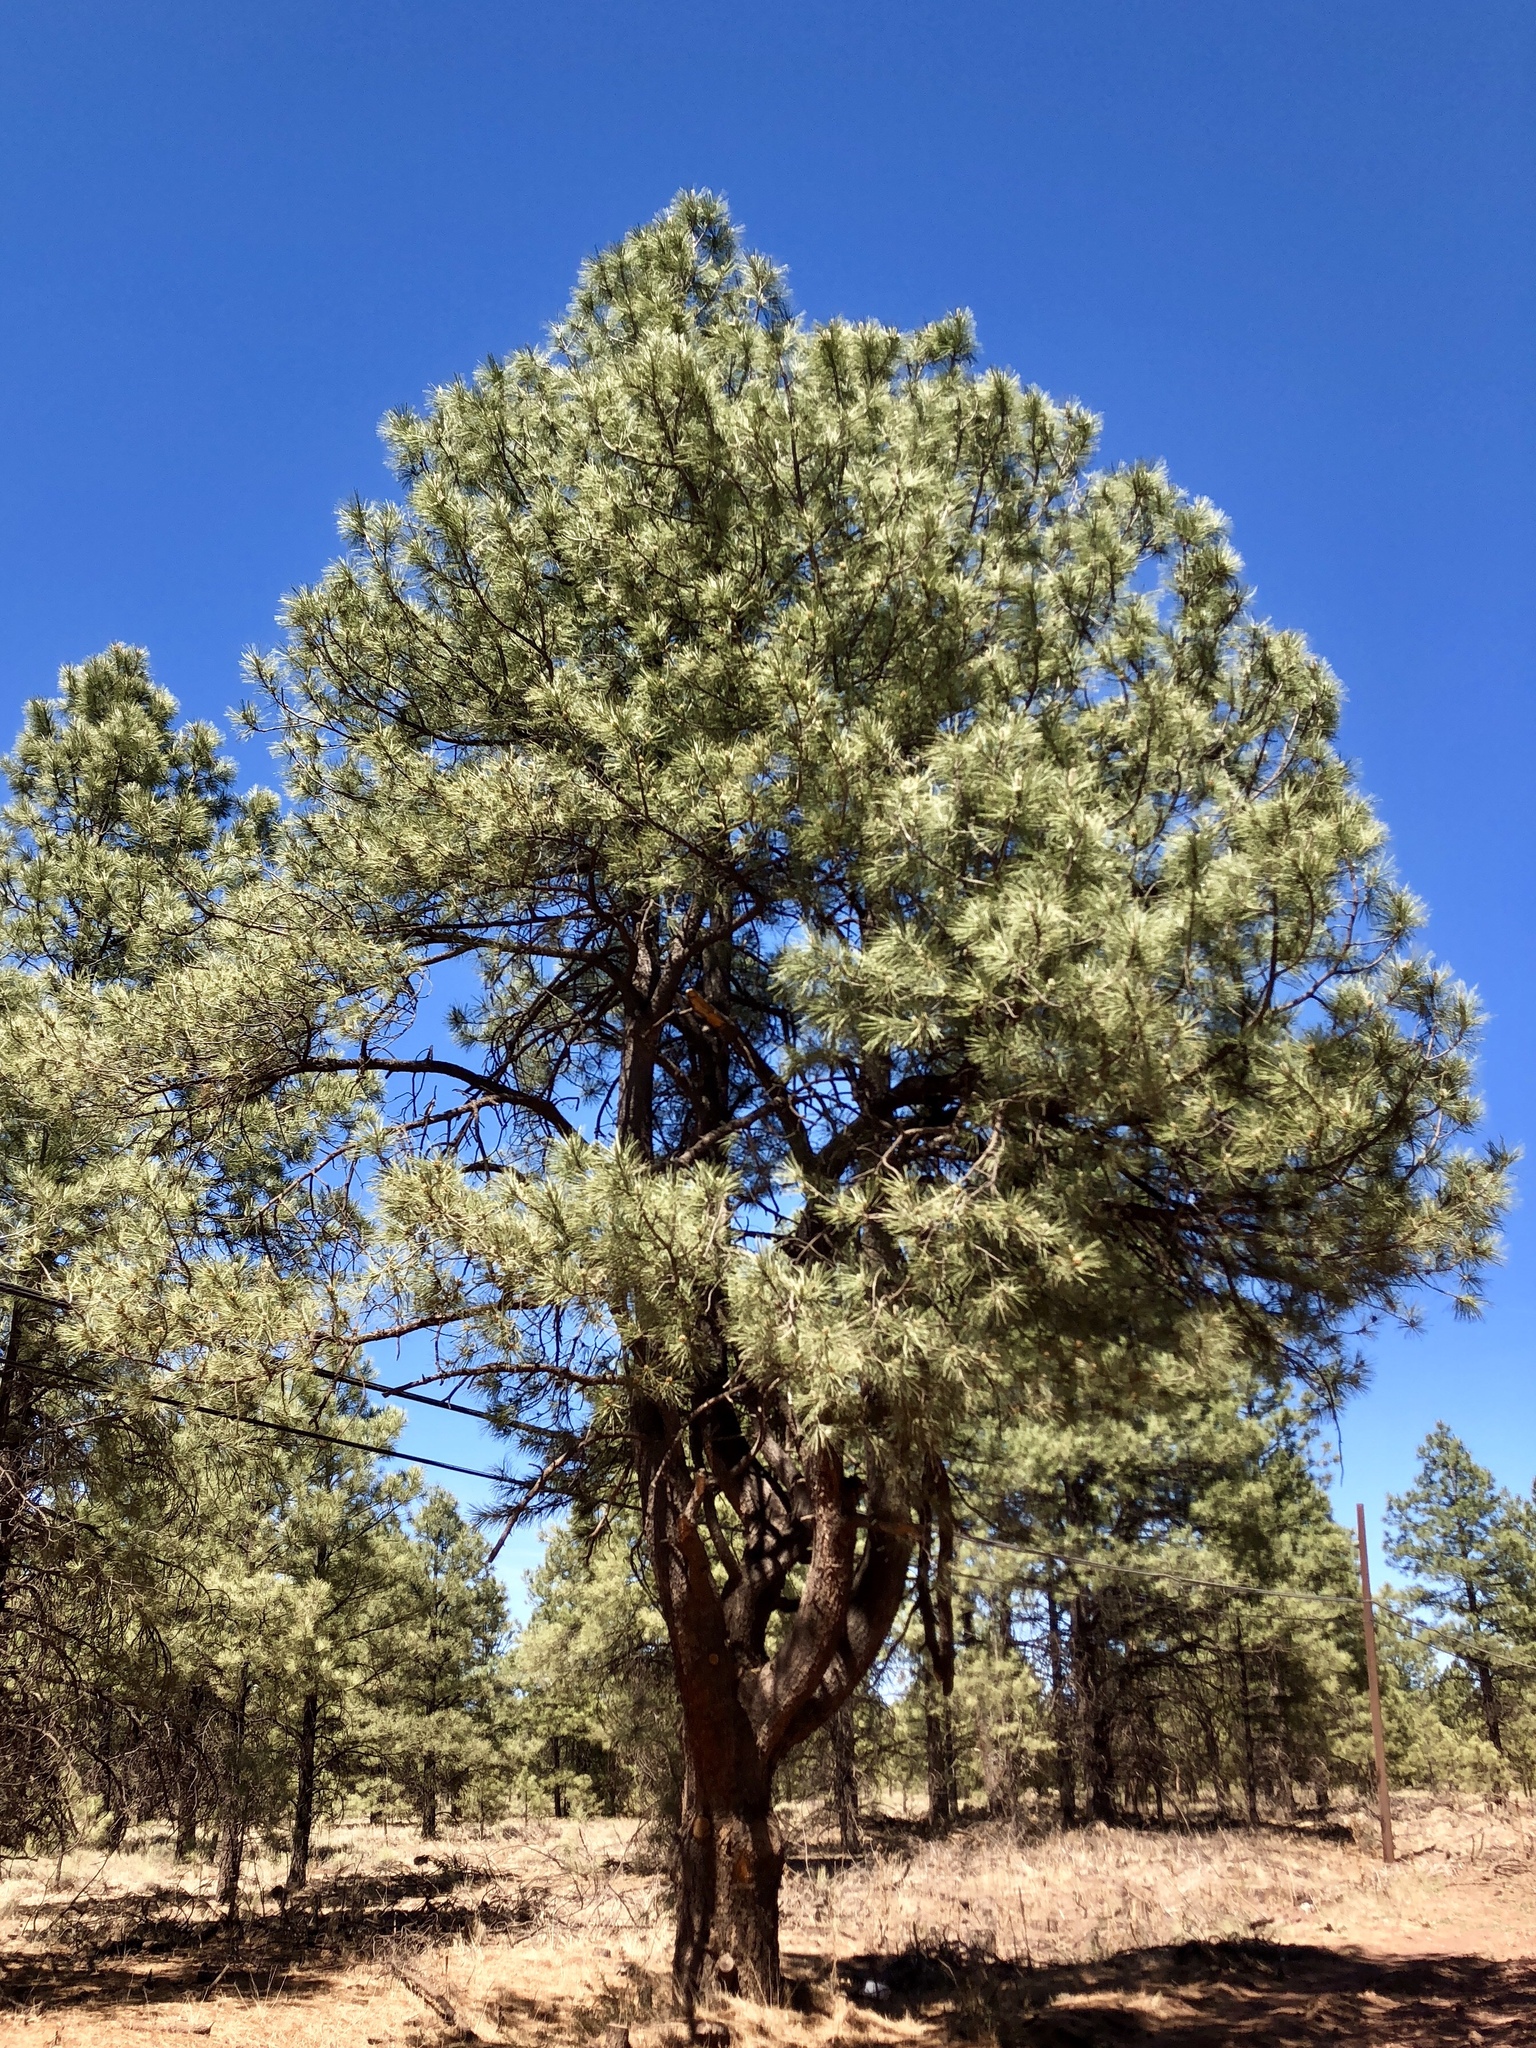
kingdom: Plantae
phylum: Tracheophyta
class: Pinopsida
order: Pinales
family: Pinaceae
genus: Pinus
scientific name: Pinus ponderosa
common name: Western yellow-pine
